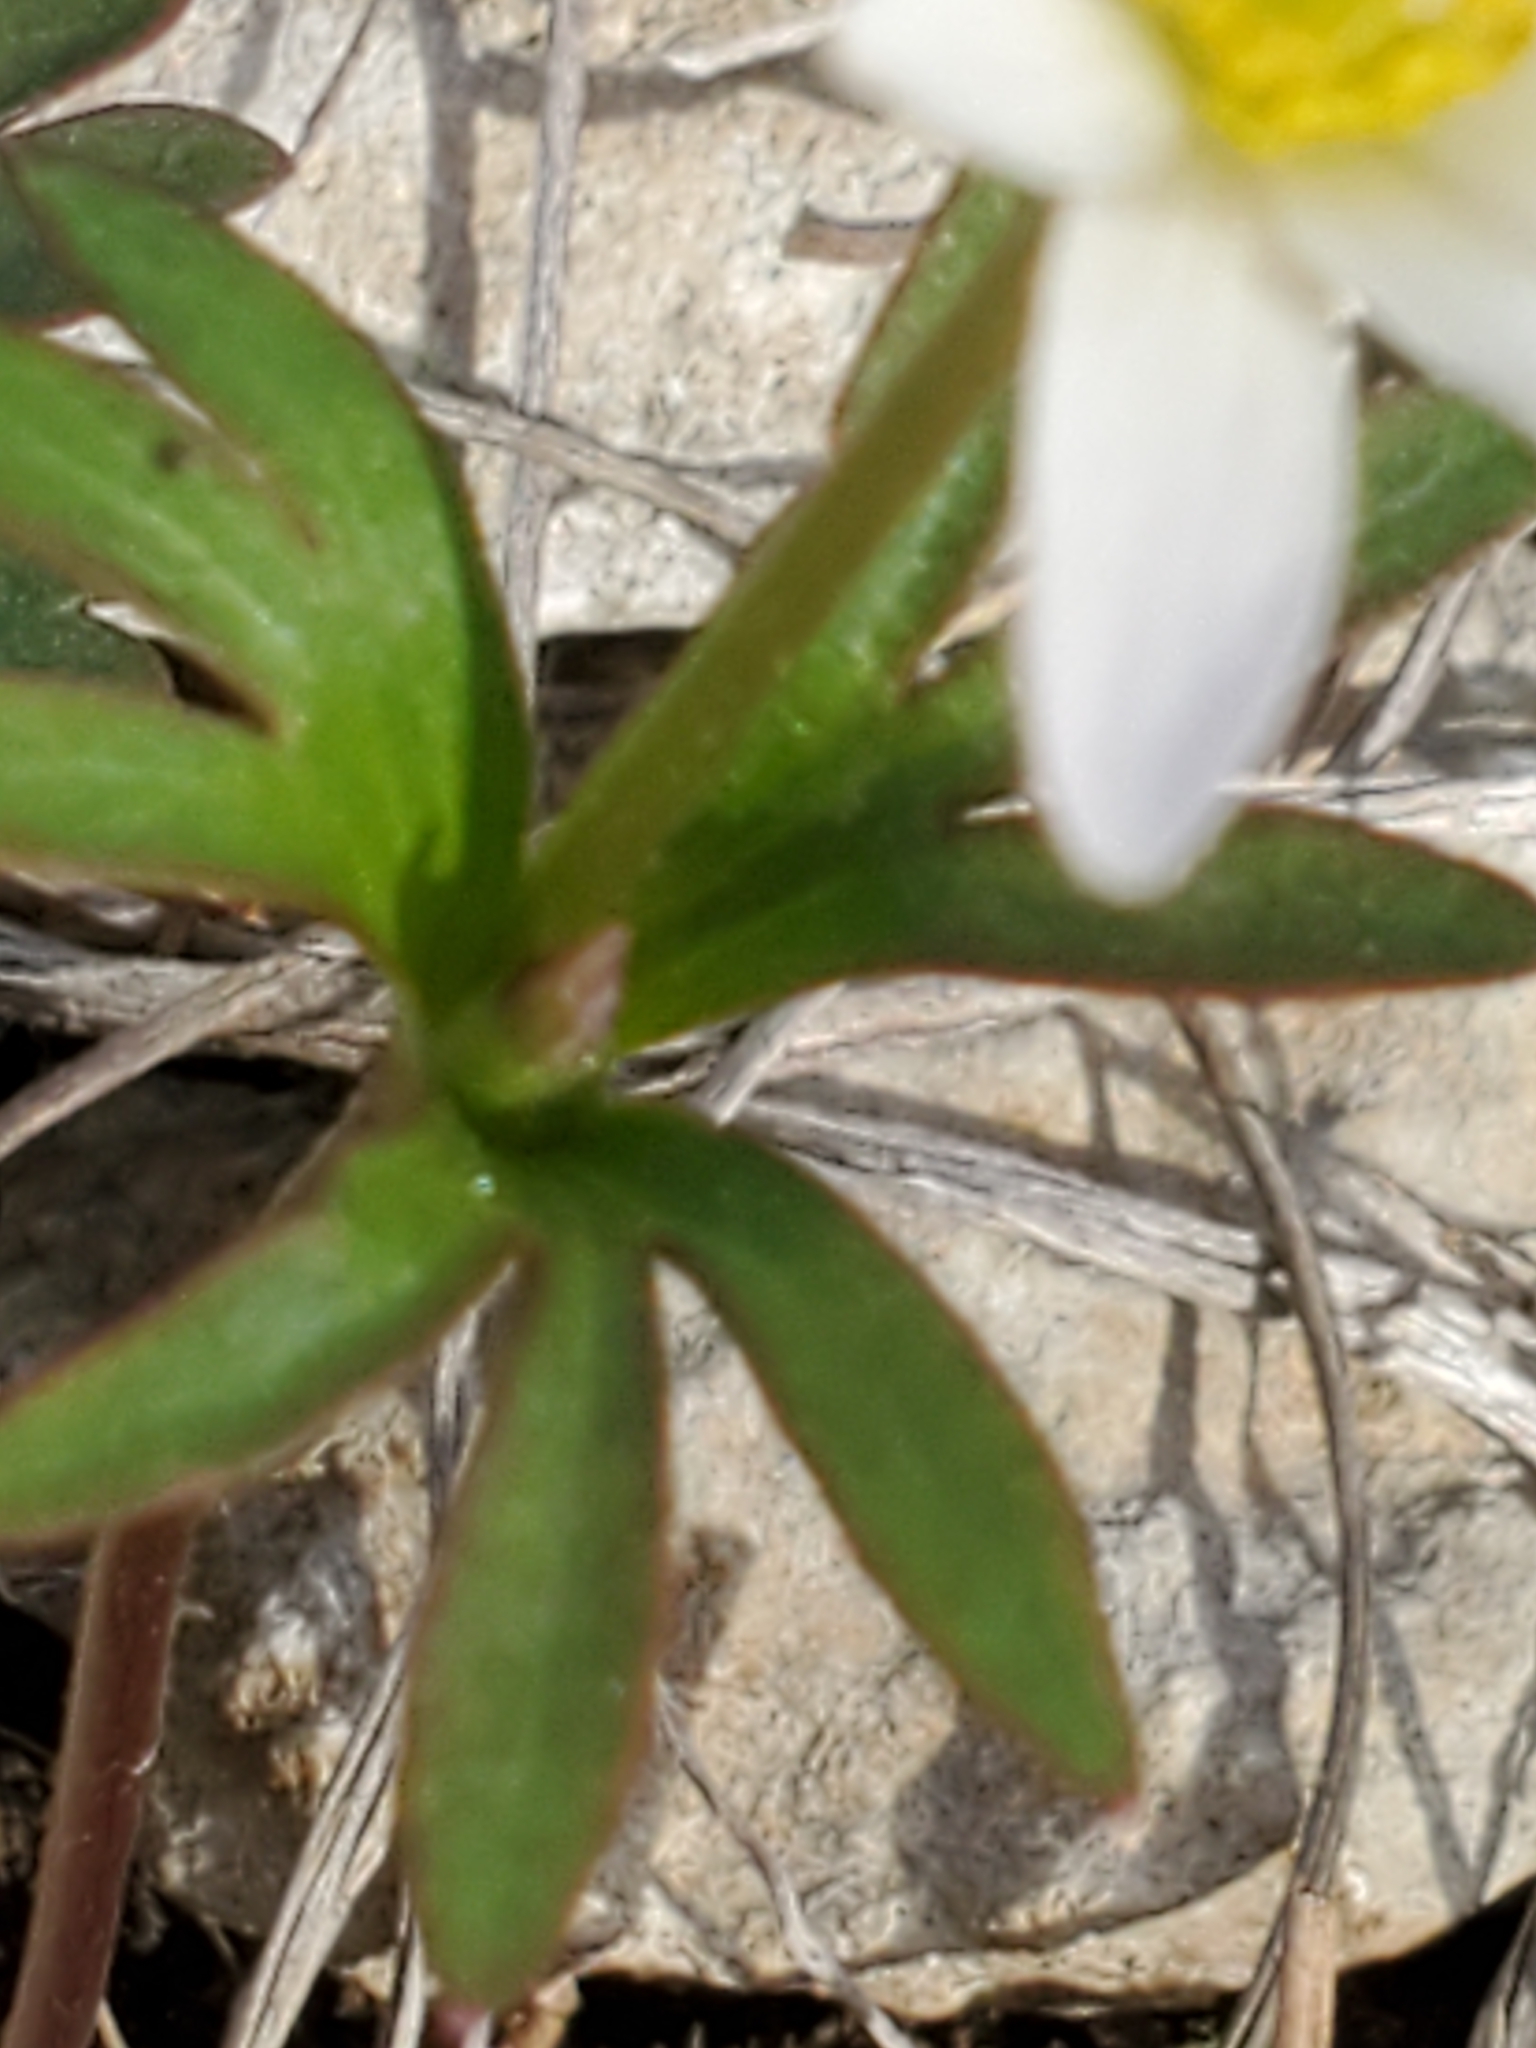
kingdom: Plantae
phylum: Tracheophyta
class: Magnoliopsida
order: Ranunculales
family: Ranunculaceae
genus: Anemone
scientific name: Anemone edwardsiana
